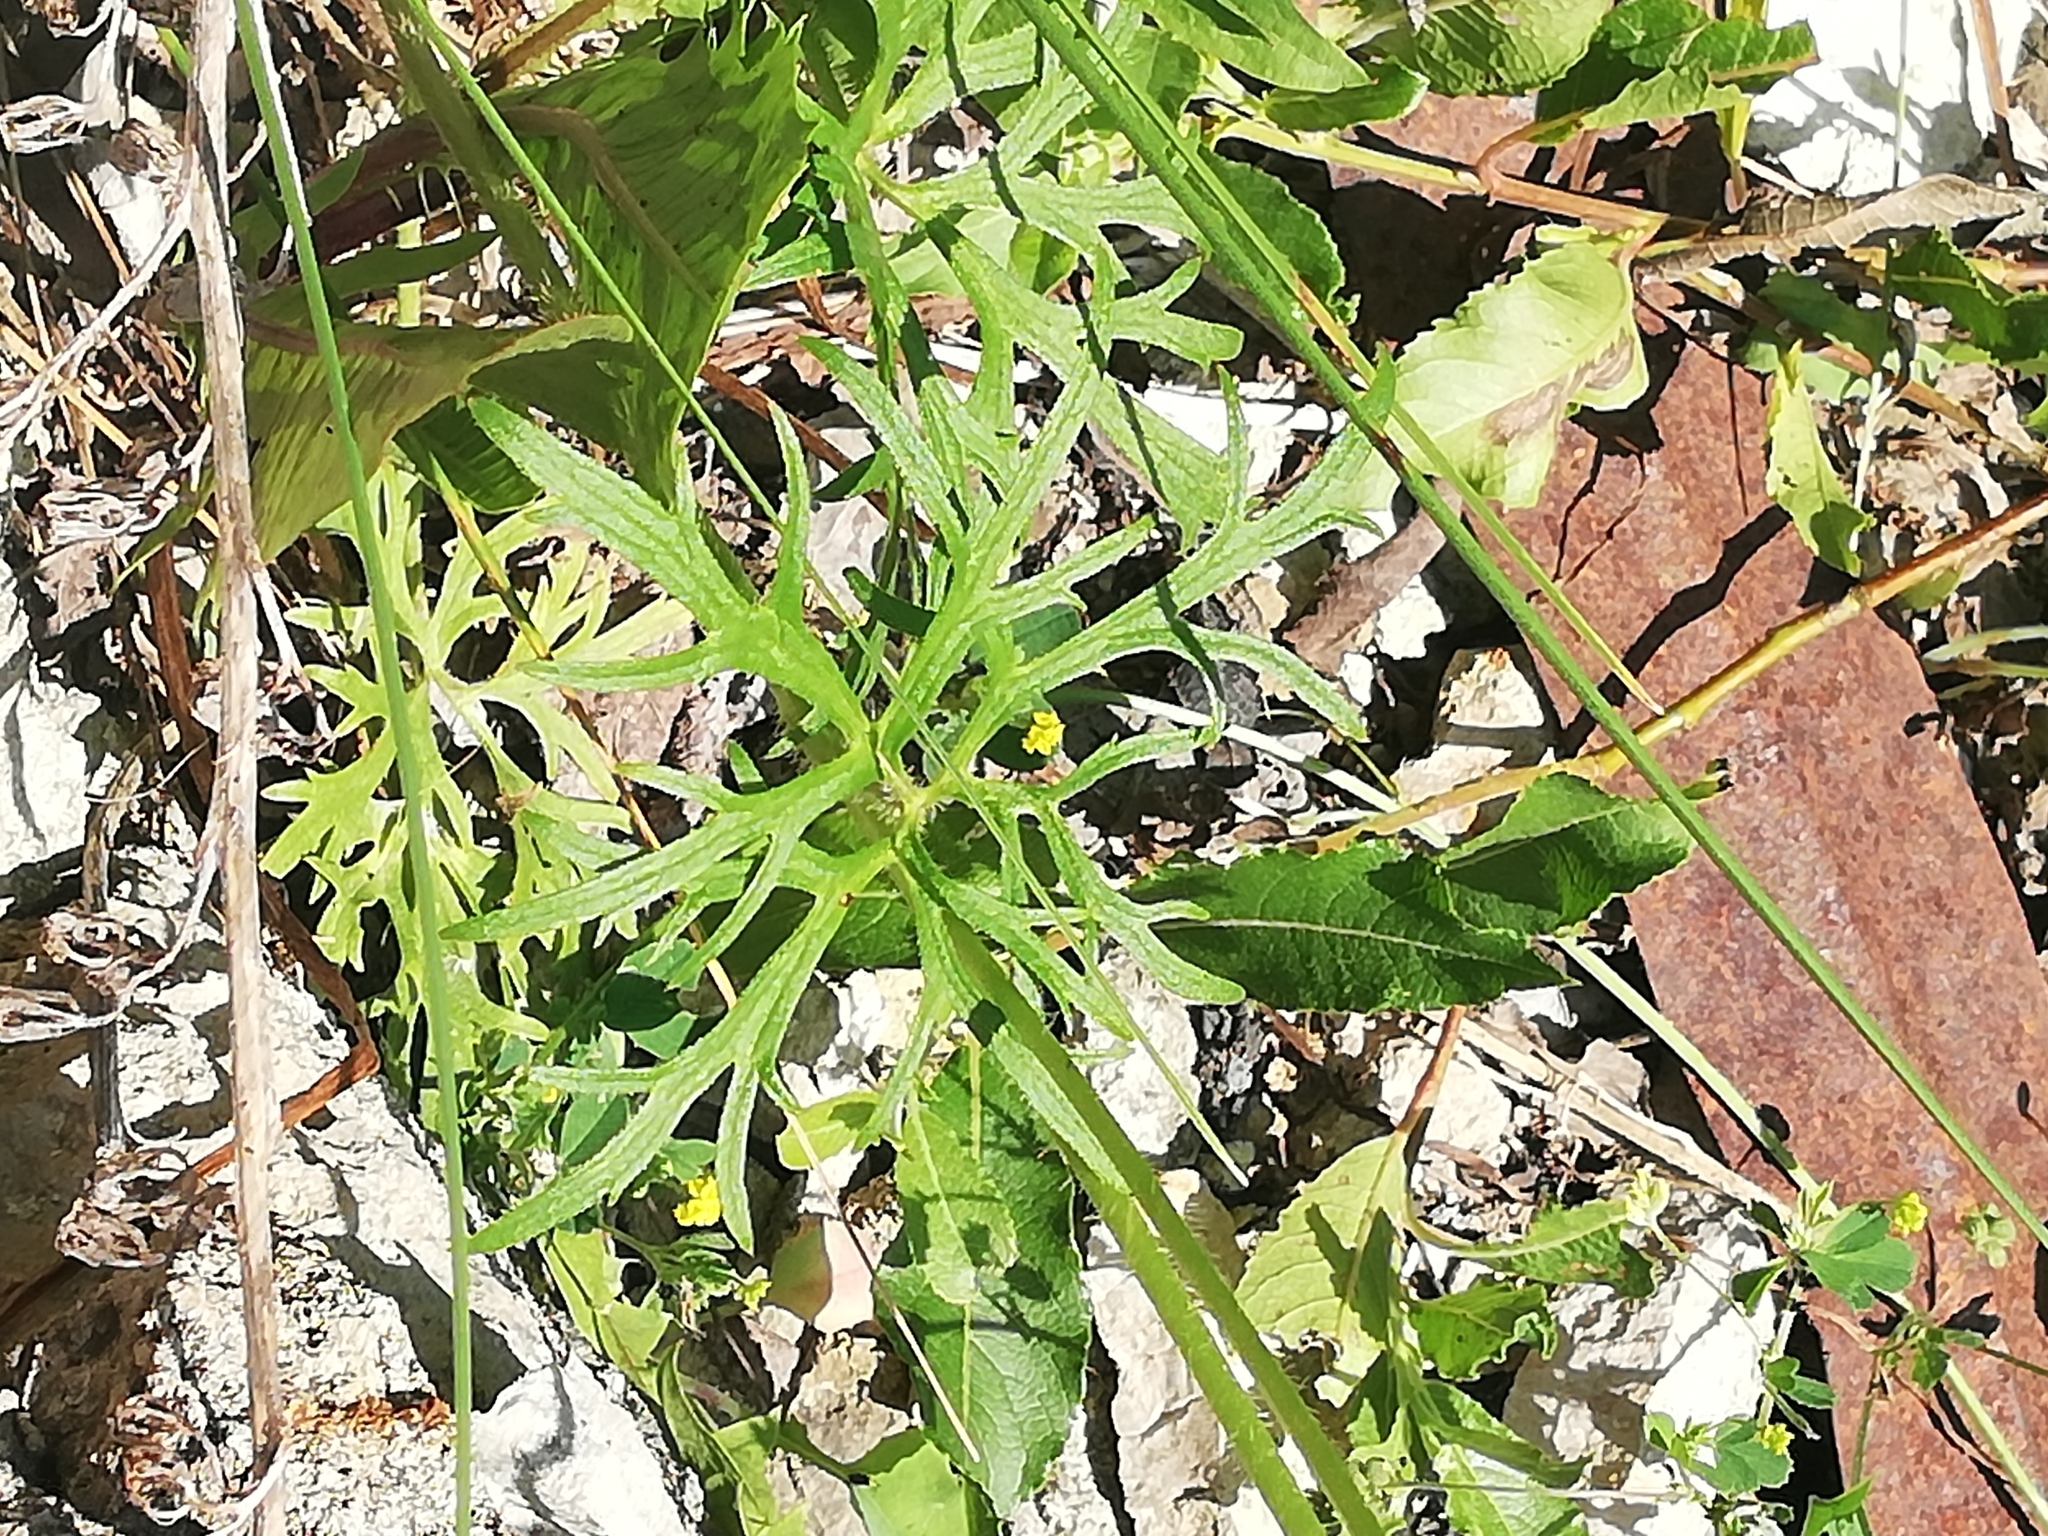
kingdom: Plantae
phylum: Tracheophyta
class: Magnoliopsida
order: Ranunculales
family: Ranunculaceae
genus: Ranunculus
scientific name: Ranunculus polyanthemos
